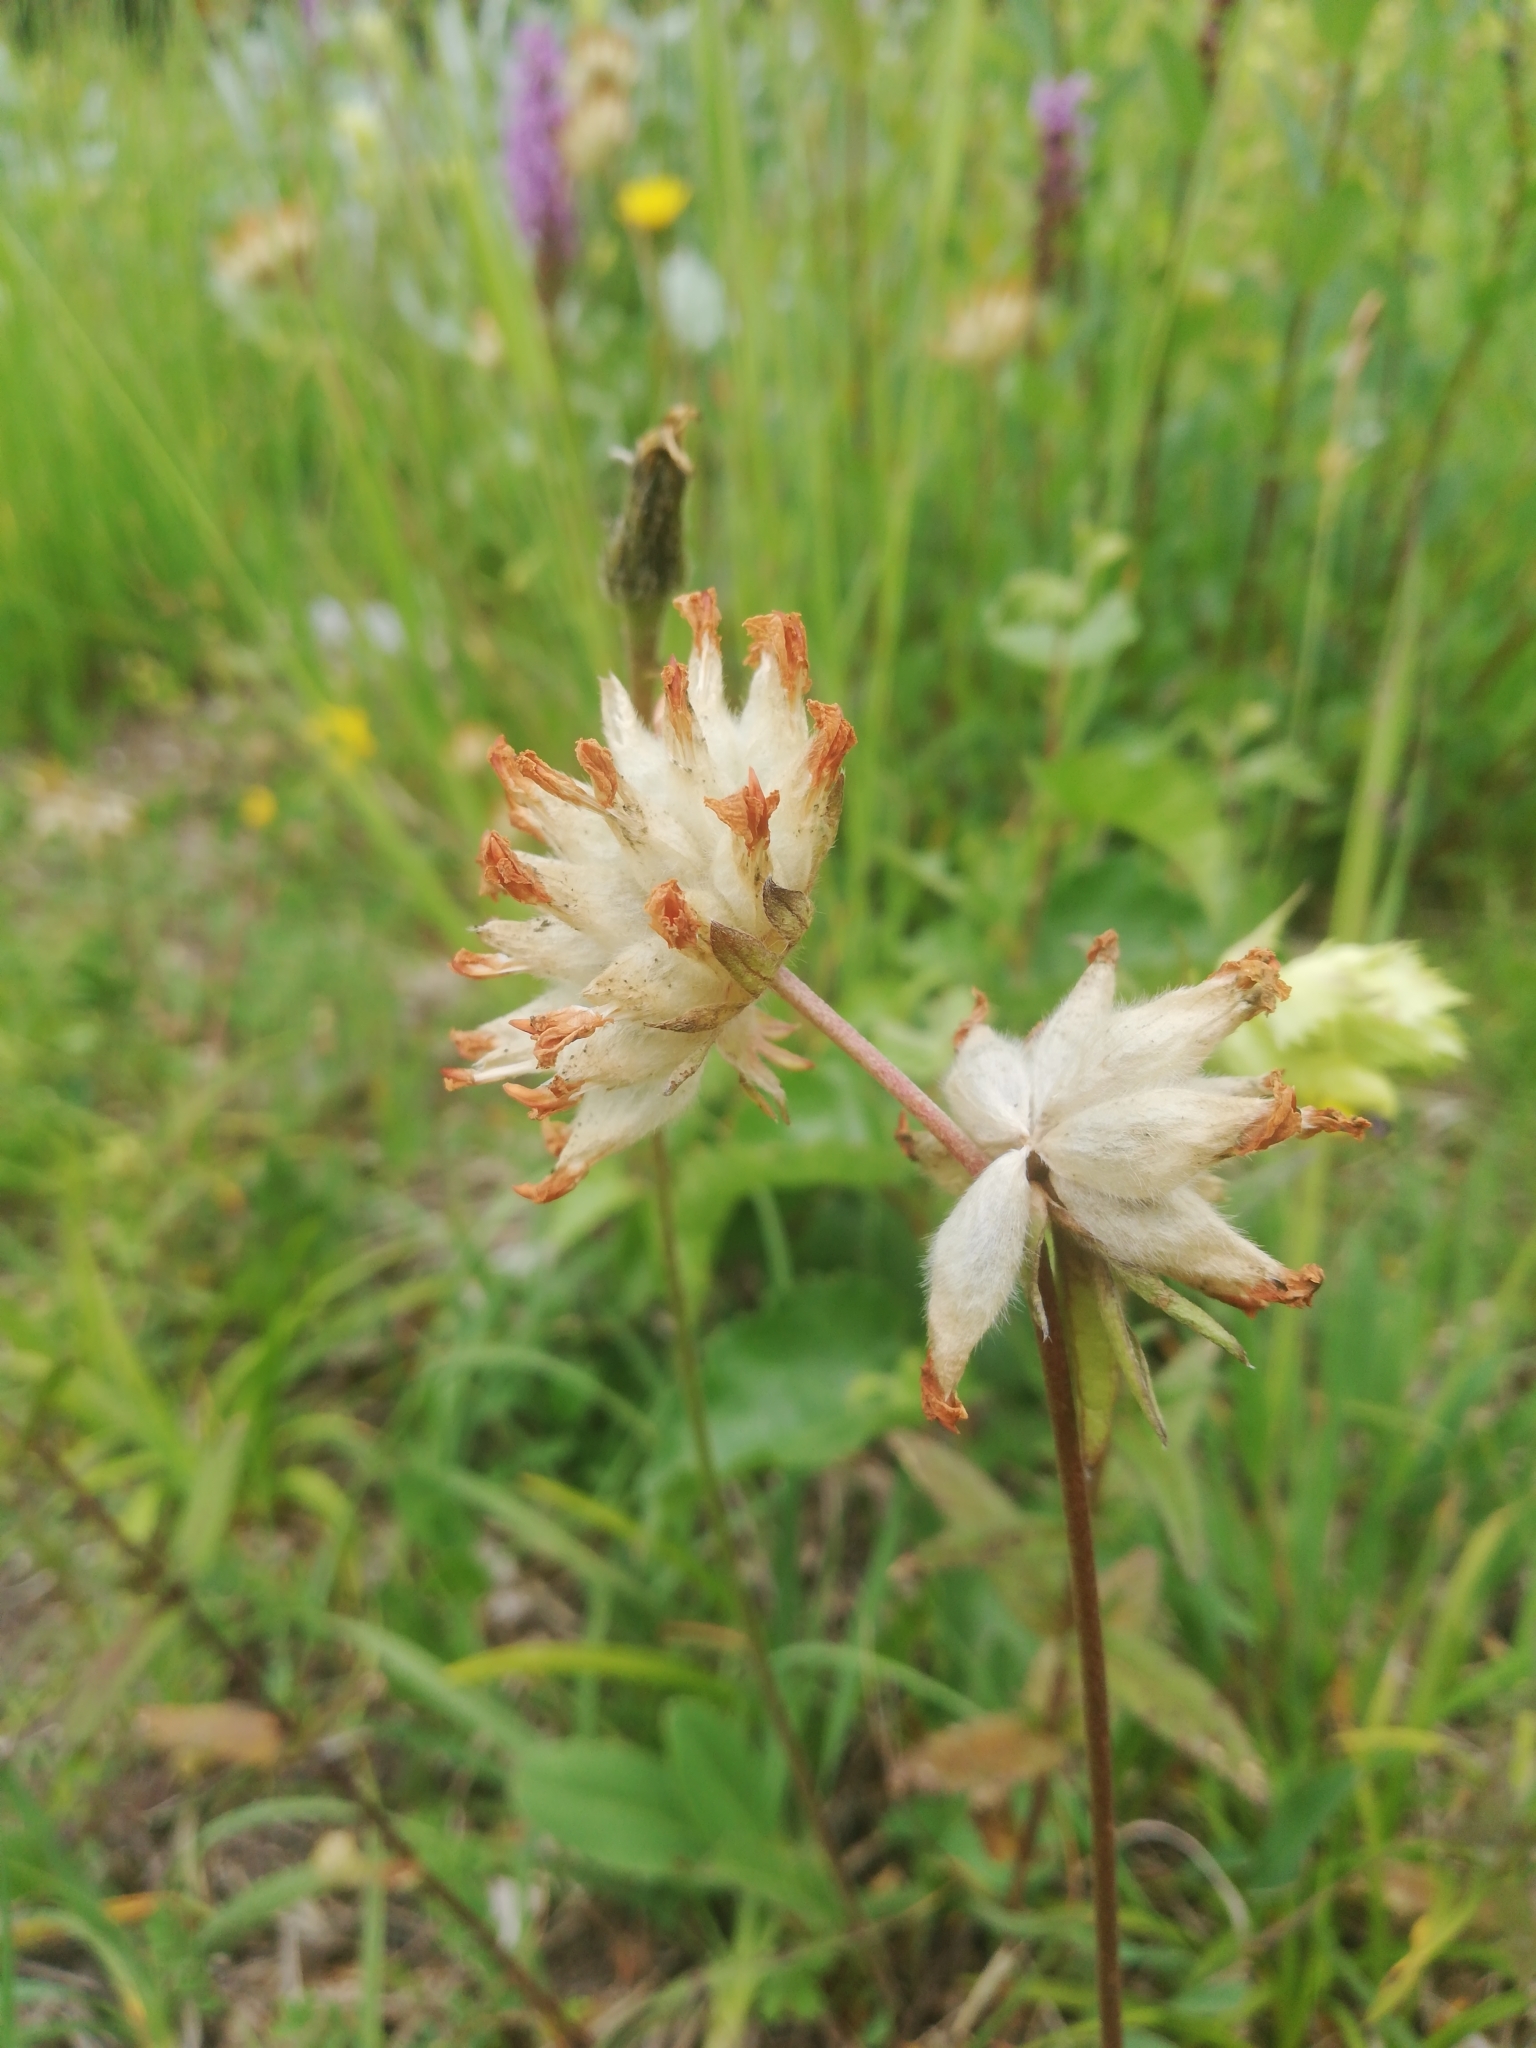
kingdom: Plantae
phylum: Tracheophyta
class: Magnoliopsida
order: Fabales
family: Fabaceae
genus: Anthyllis
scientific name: Anthyllis vulneraria
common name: Kidney vetch
